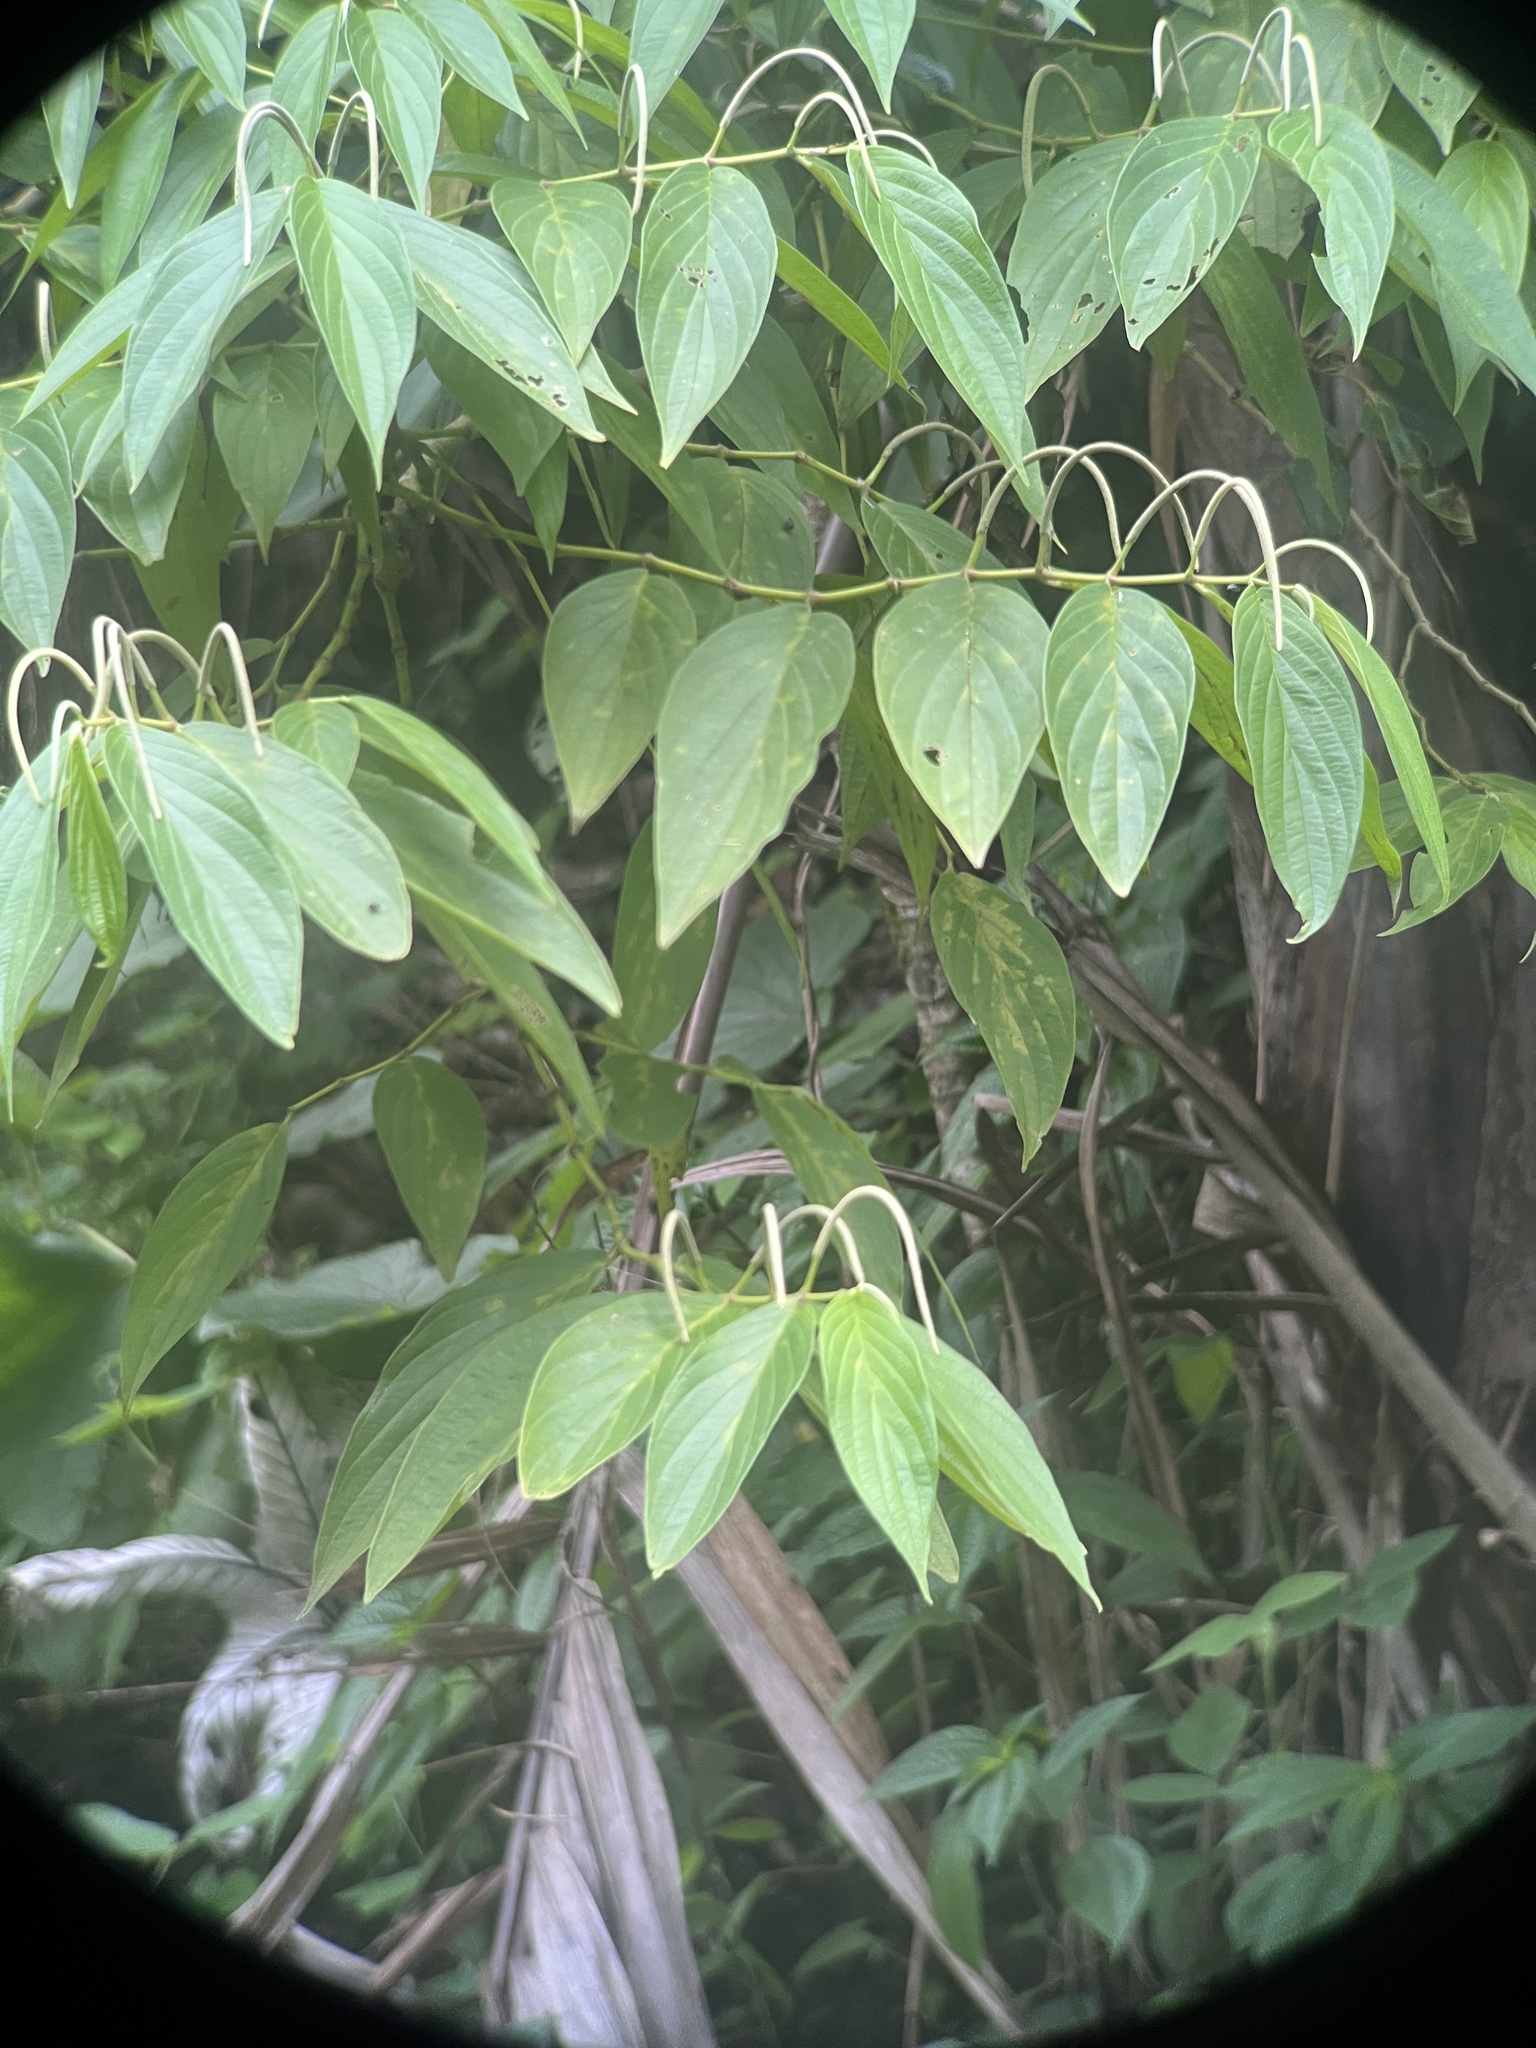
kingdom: Plantae
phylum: Tracheophyta
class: Magnoliopsida
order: Piperales
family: Piperaceae
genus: Piper
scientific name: Piper aduncum
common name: Spiked pepper
